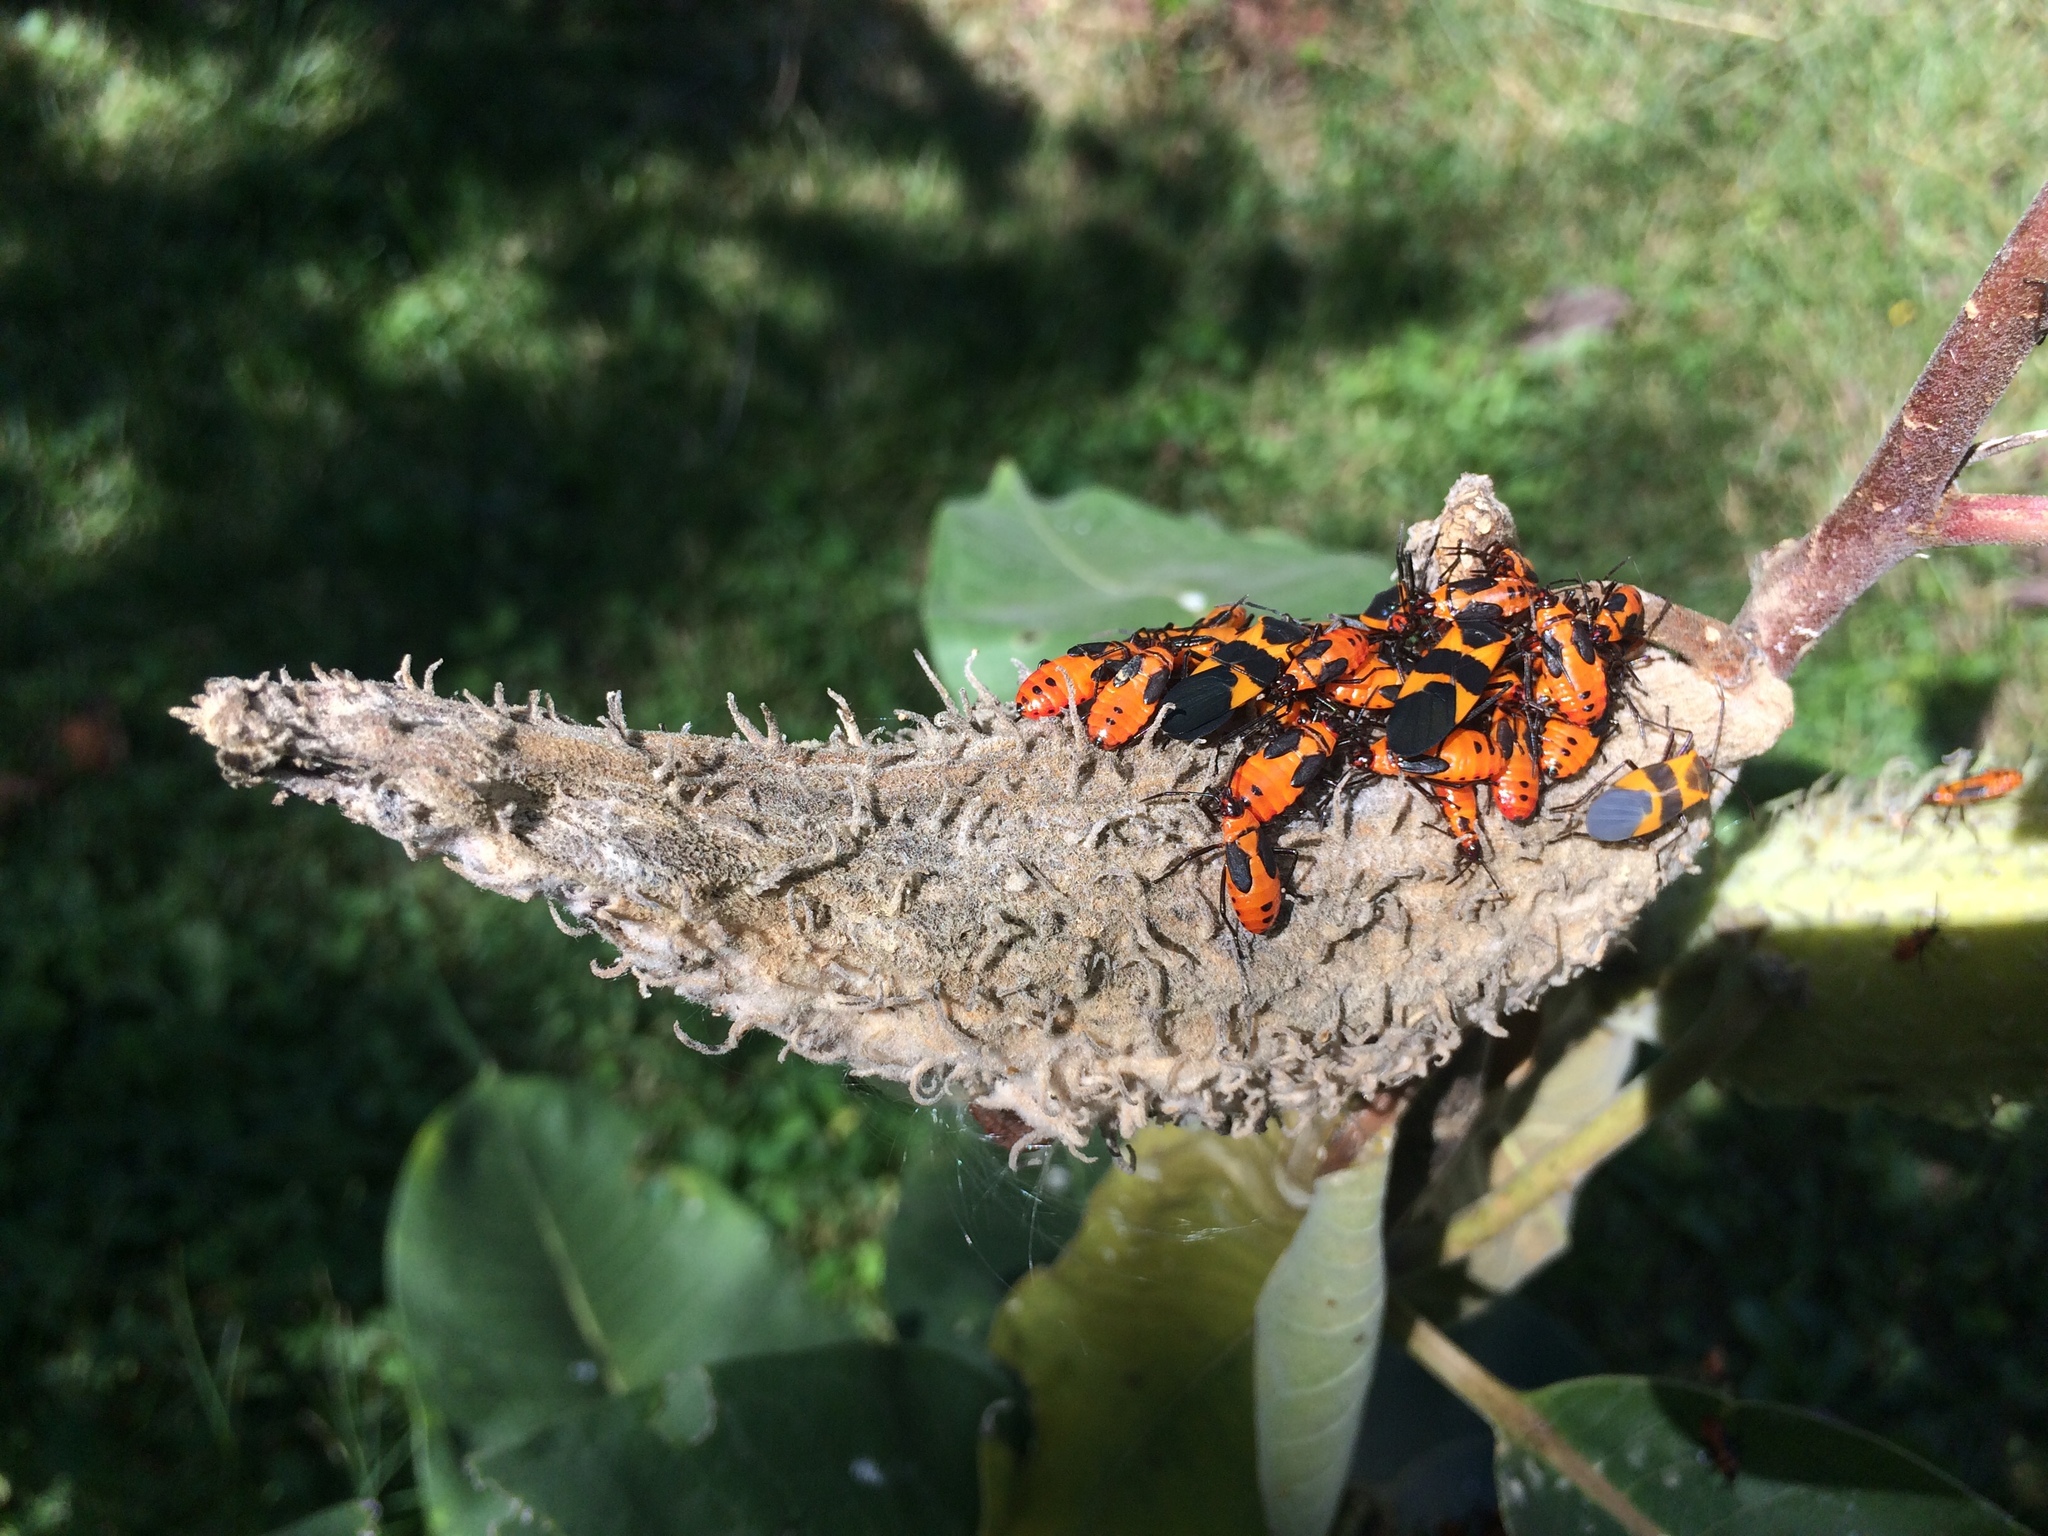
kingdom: Plantae
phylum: Tracheophyta
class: Magnoliopsida
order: Gentianales
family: Apocynaceae
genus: Asclepias
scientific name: Asclepias syriaca
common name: Common milkweed
